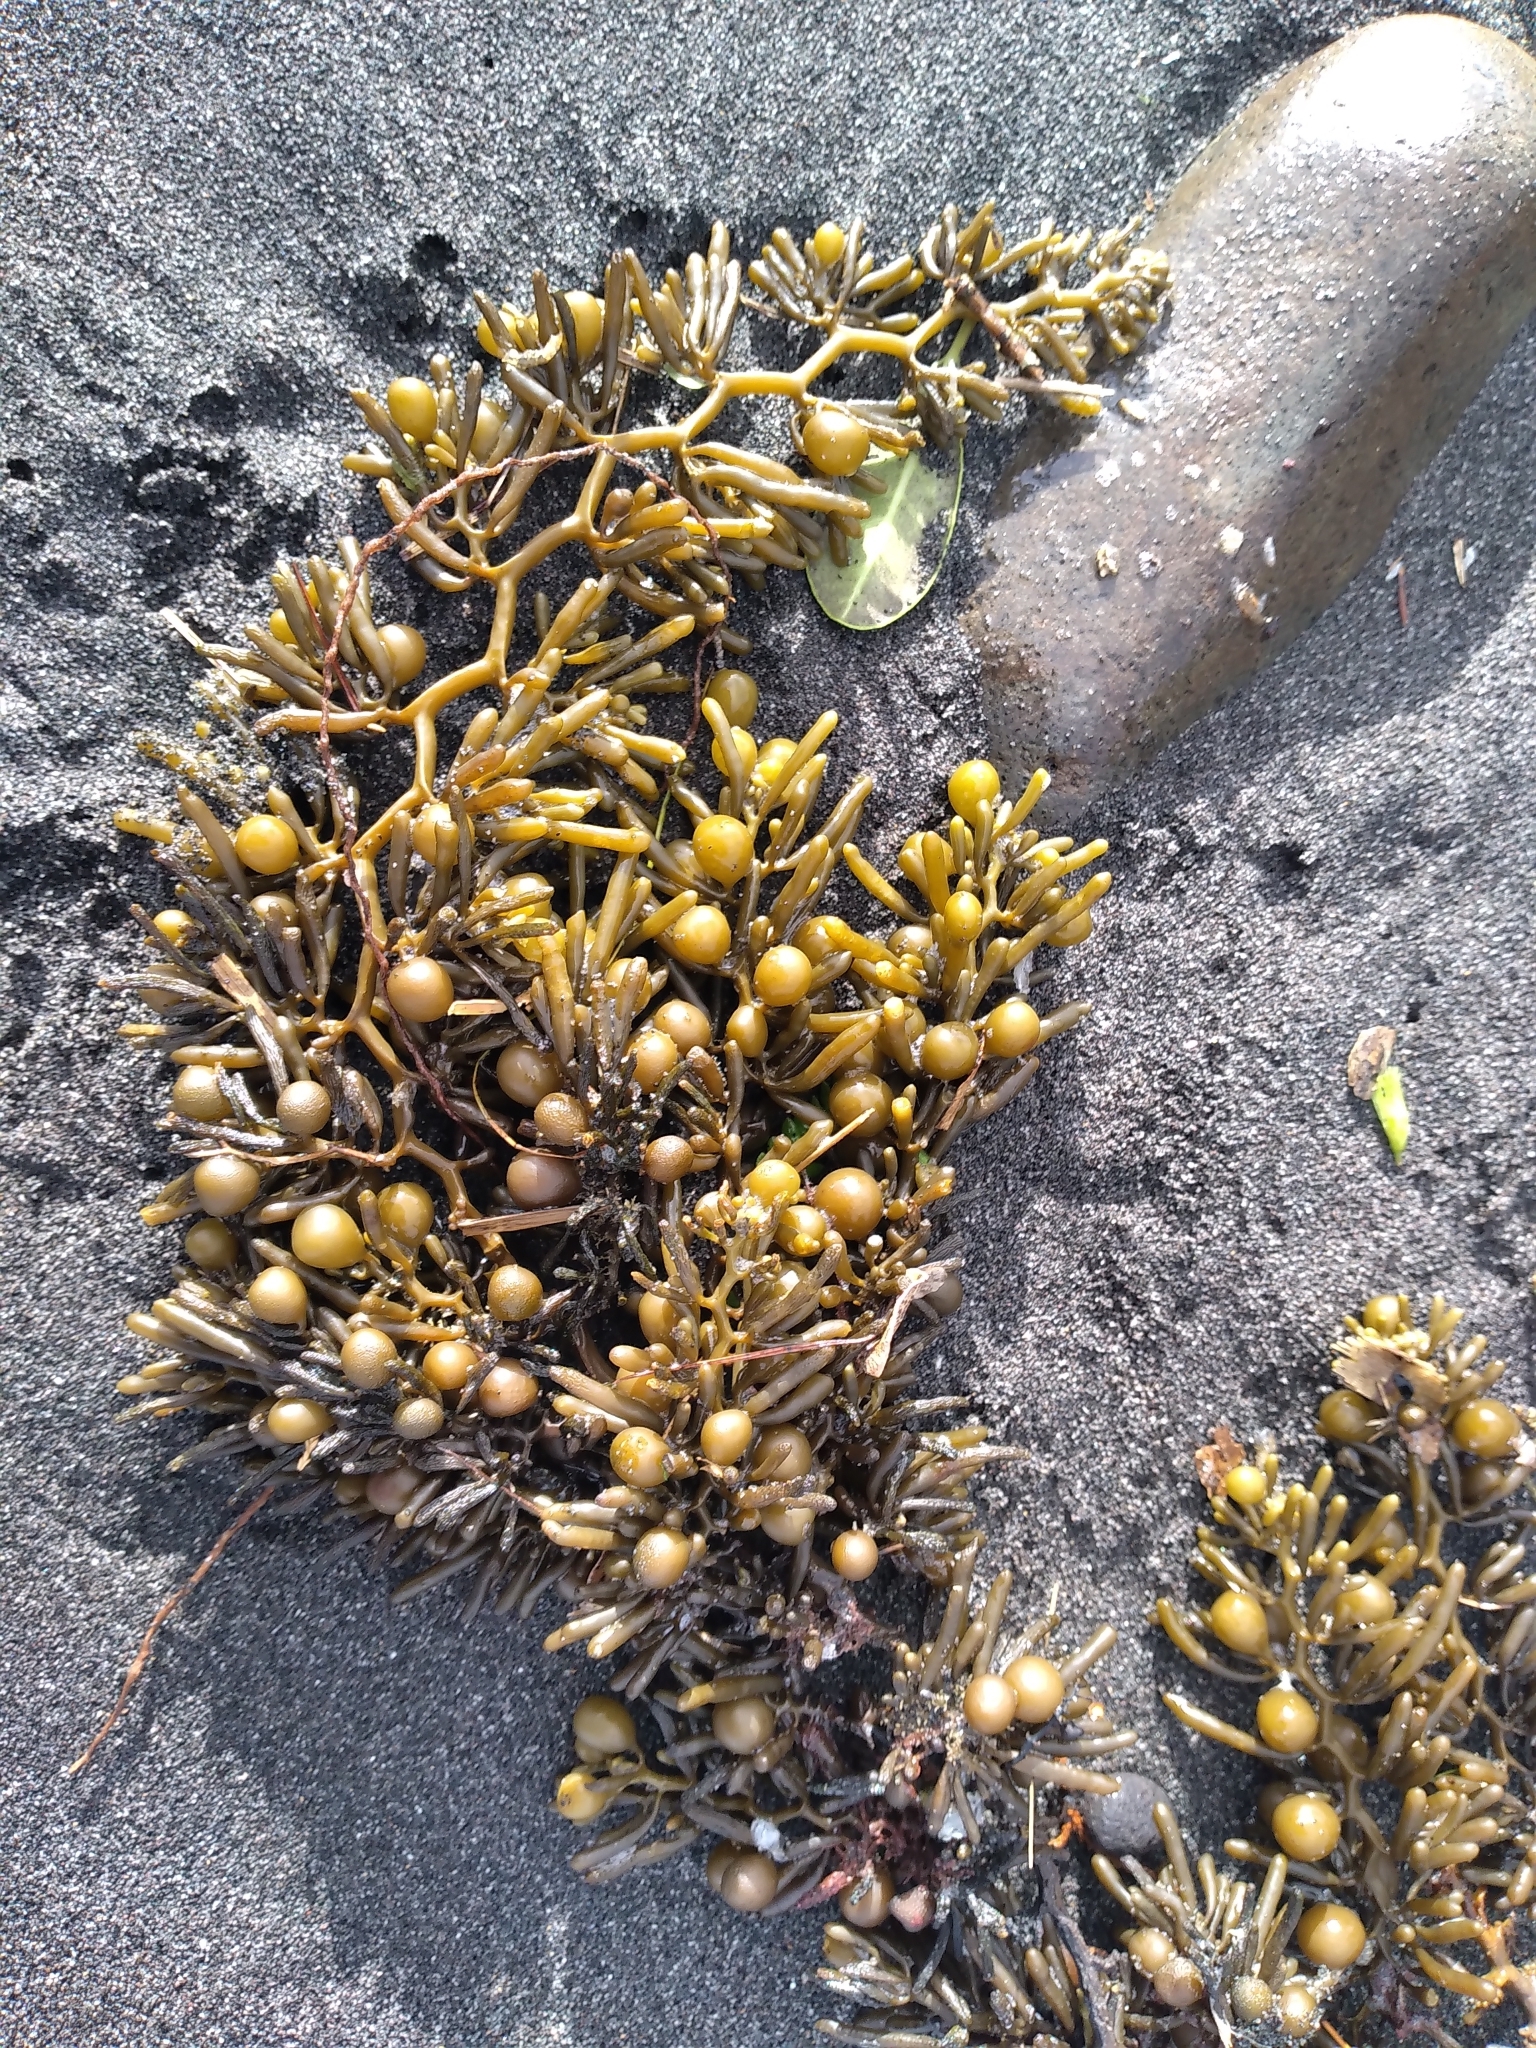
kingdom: Chromista
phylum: Ochrophyta
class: Phaeophyceae
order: Fucales
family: Sargassaceae
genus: Cystophora
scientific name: Cystophora torulosa
